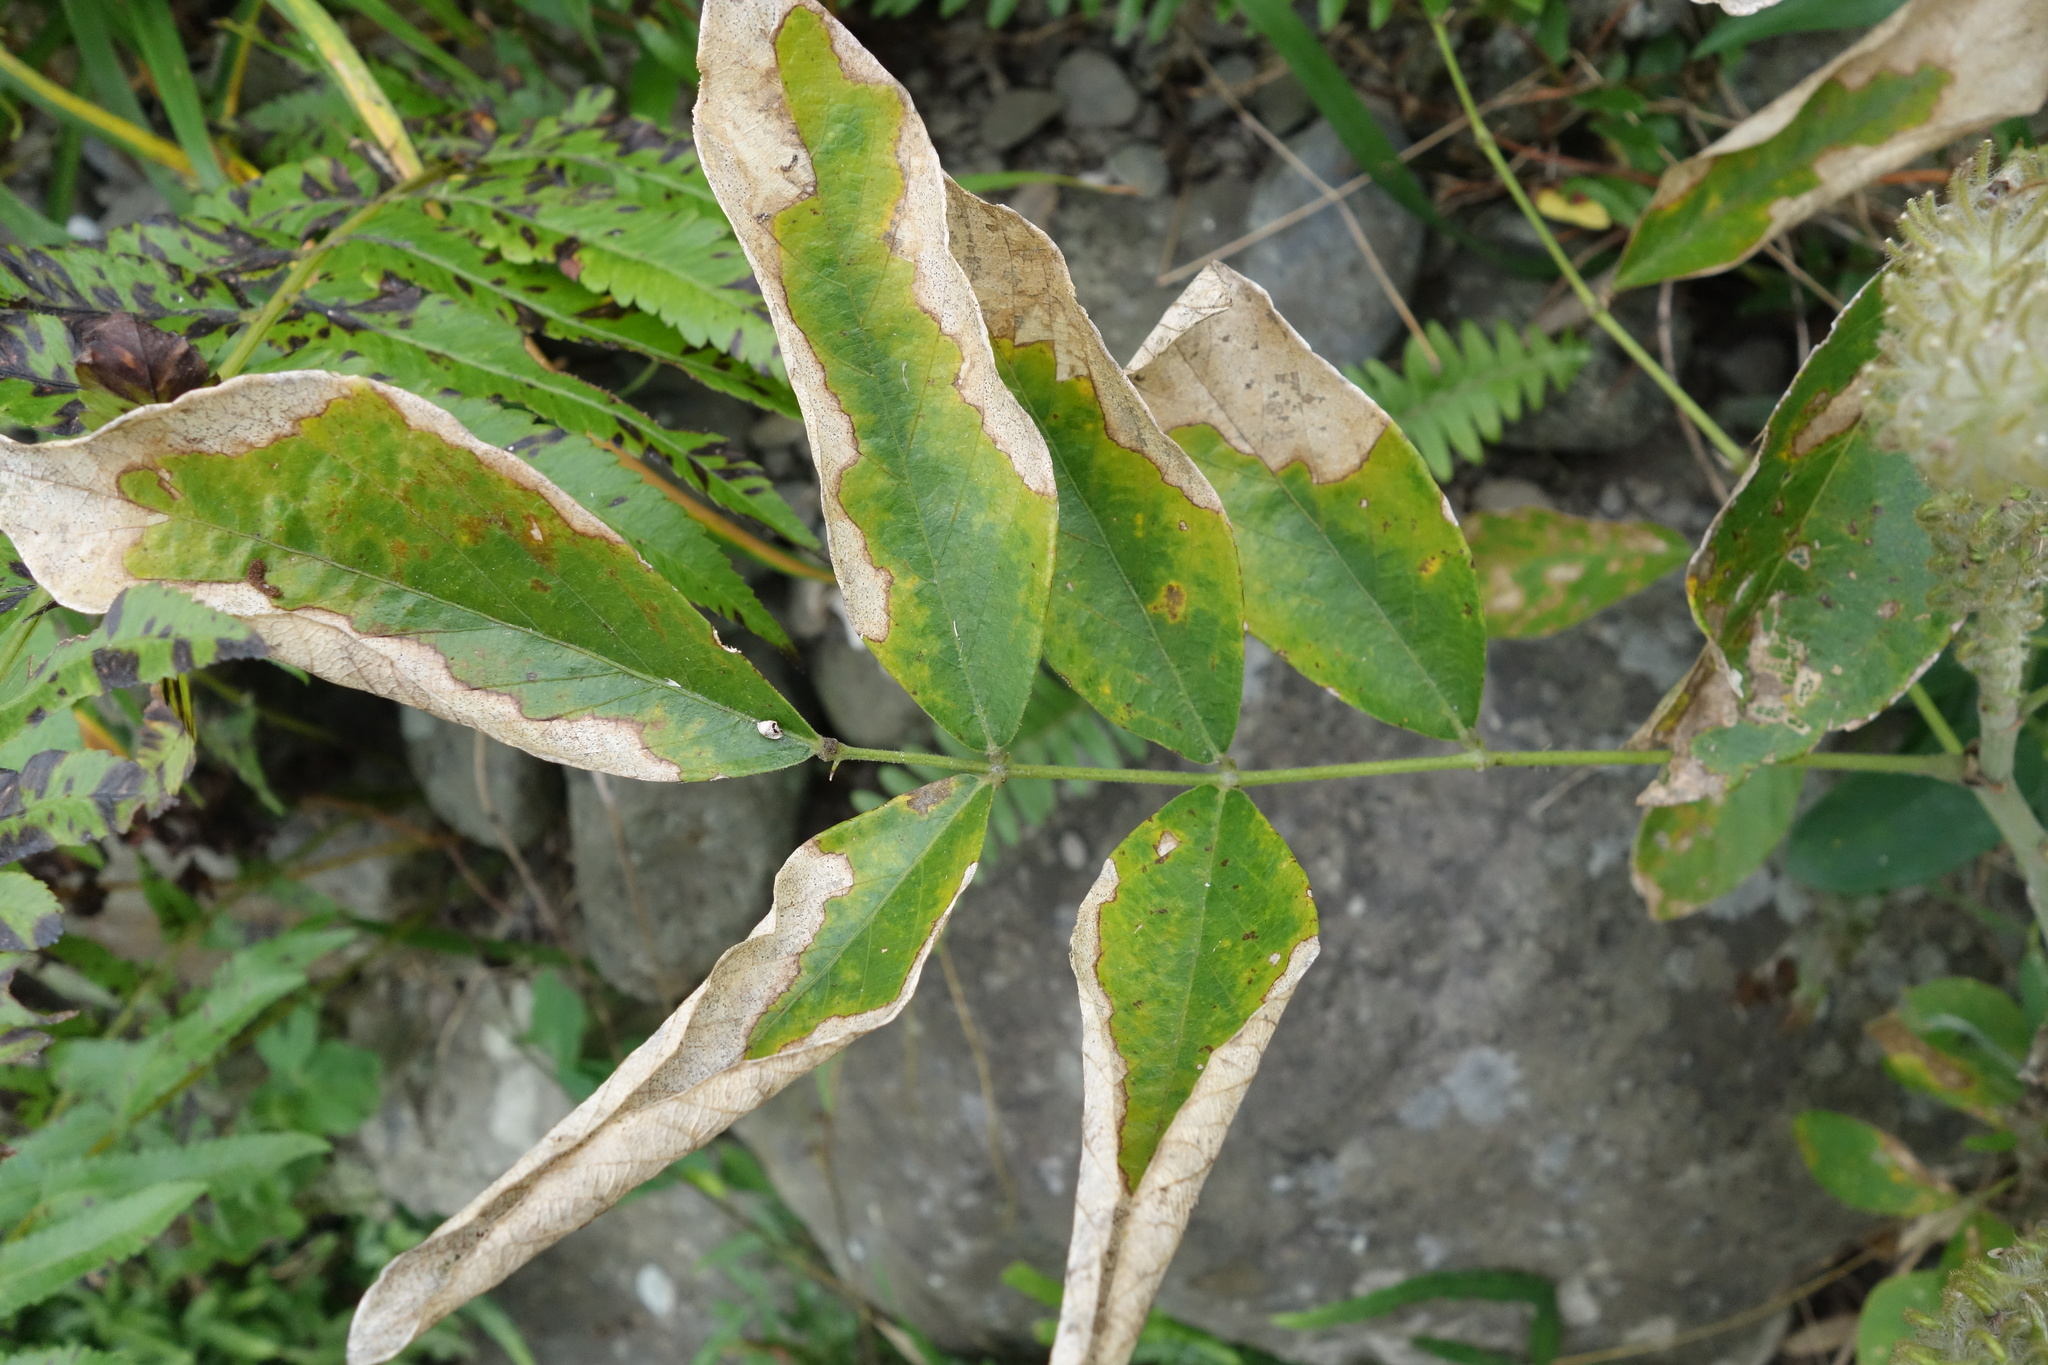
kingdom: Plantae
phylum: Tracheophyta
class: Magnoliopsida
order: Fabales
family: Fabaceae
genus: Uraria
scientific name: Uraria crinita
